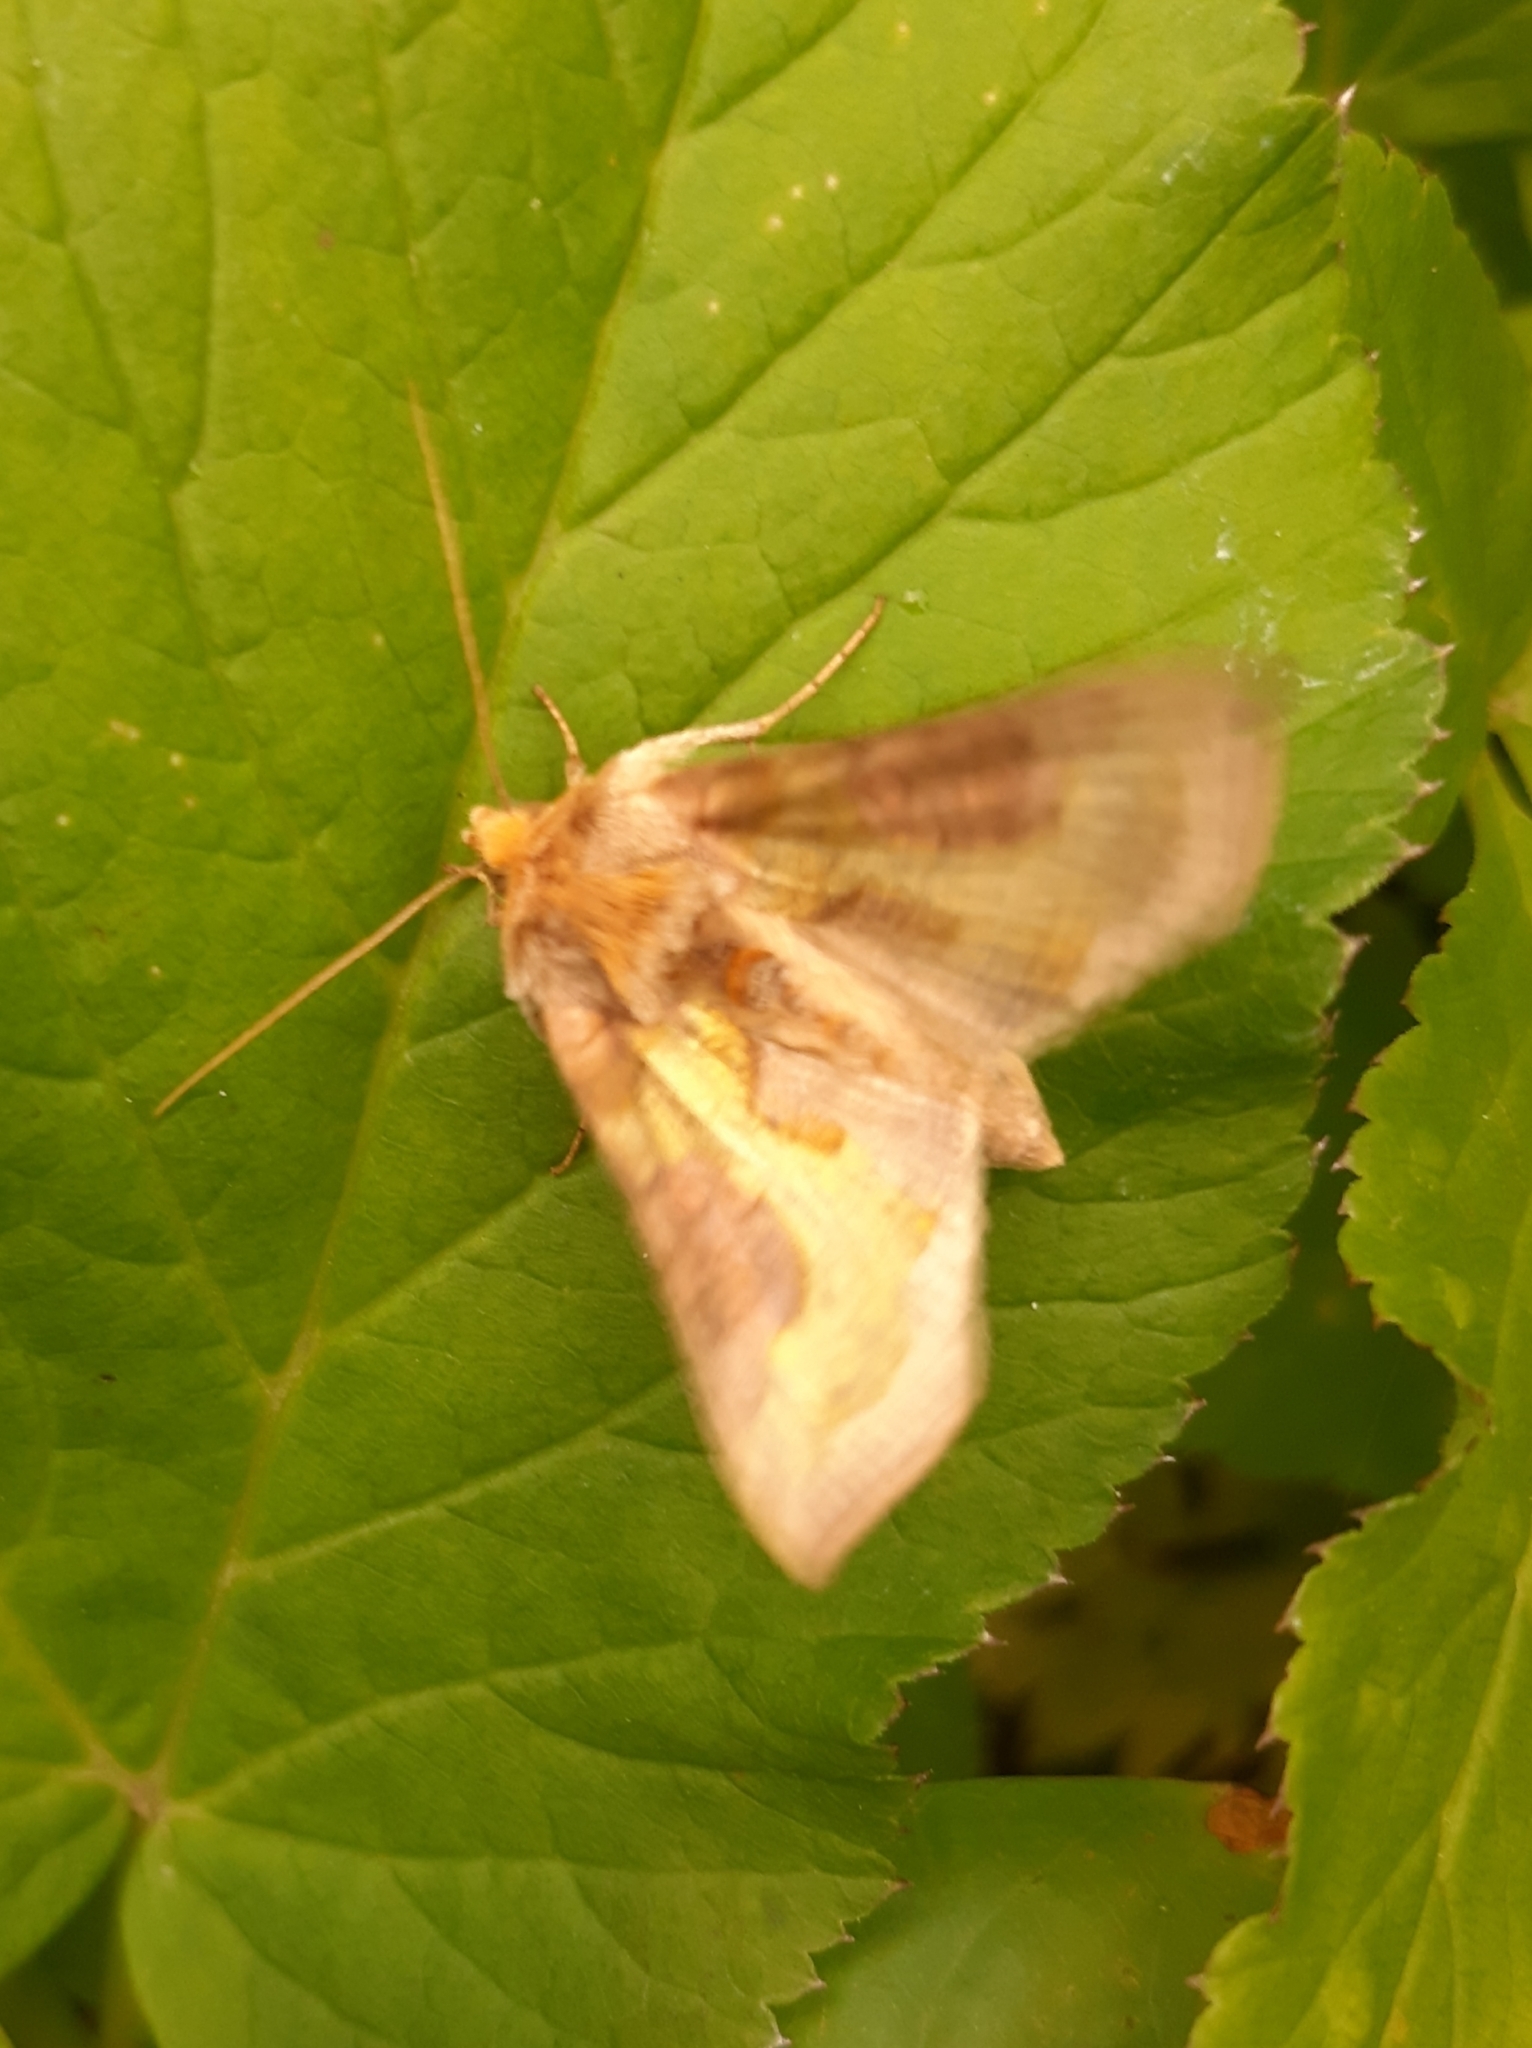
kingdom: Animalia
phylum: Arthropoda
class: Insecta
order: Lepidoptera
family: Noctuidae
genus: Diachrysia
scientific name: Diachrysia stenochrysis
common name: Cryptic burnished brass
